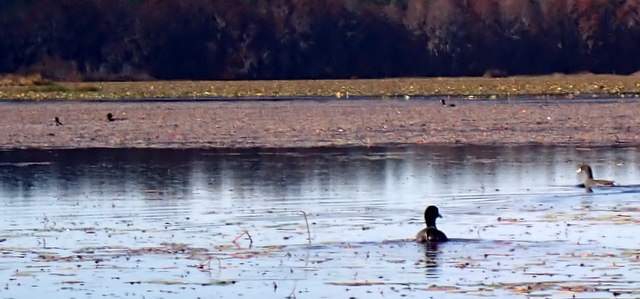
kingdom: Animalia
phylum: Chordata
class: Aves
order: Gruiformes
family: Rallidae
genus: Fulica
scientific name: Fulica americana
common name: American coot
